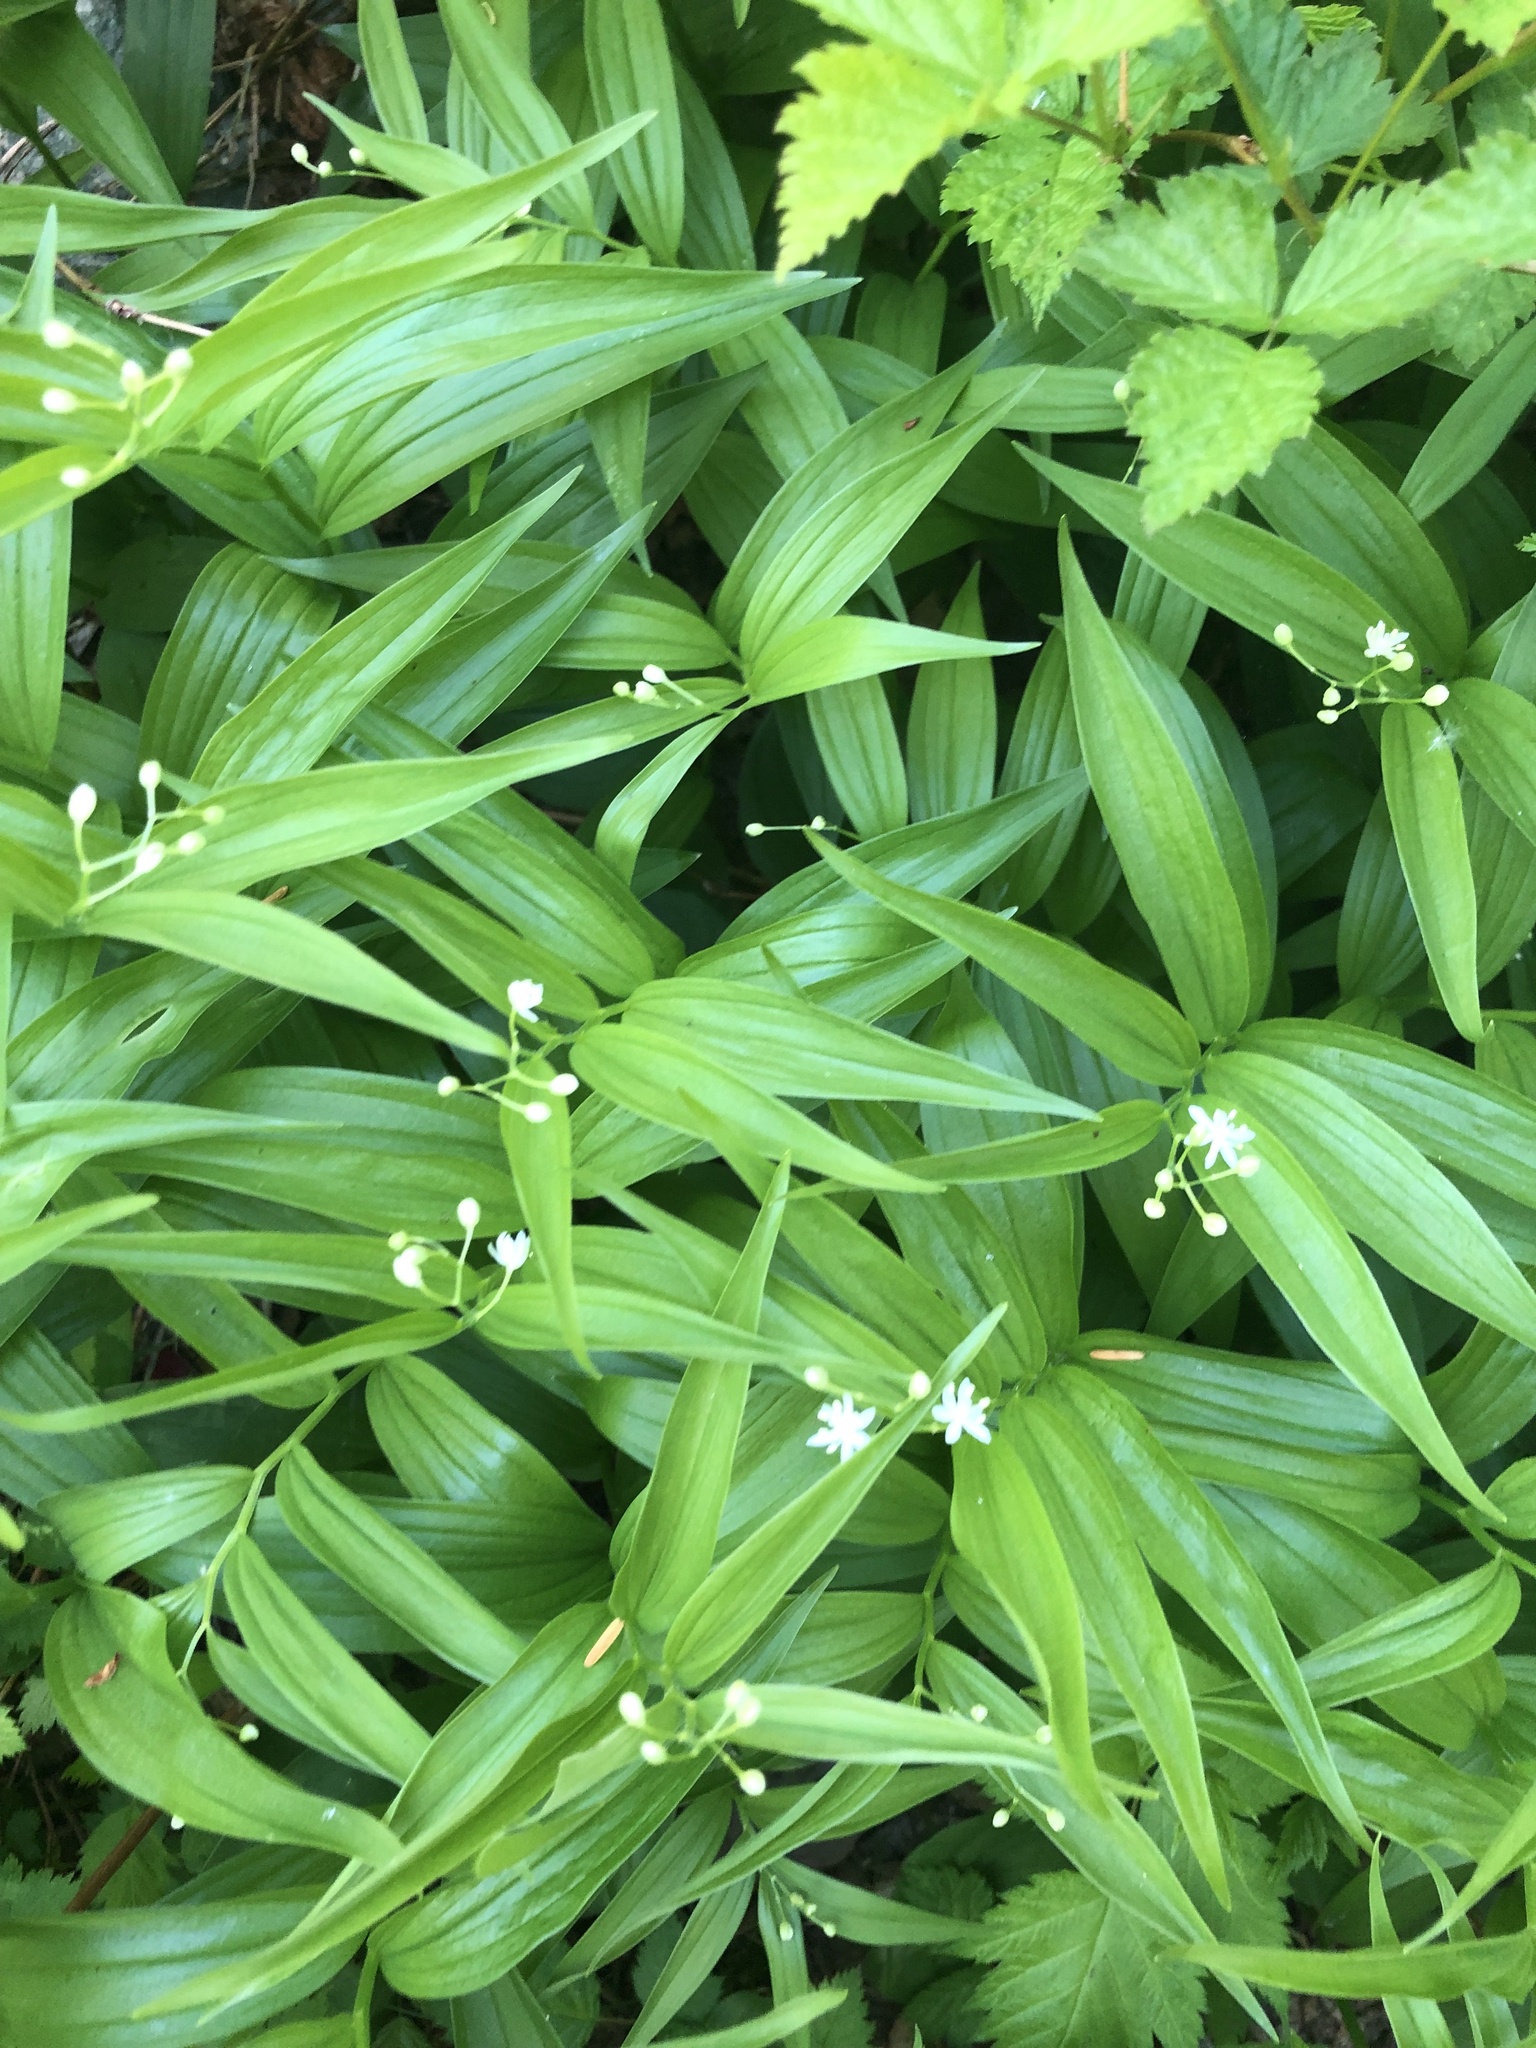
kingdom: Plantae
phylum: Tracheophyta
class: Liliopsida
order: Asparagales
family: Asparagaceae
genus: Maianthemum
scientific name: Maianthemum stellatum
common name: Little false solomon's seal
